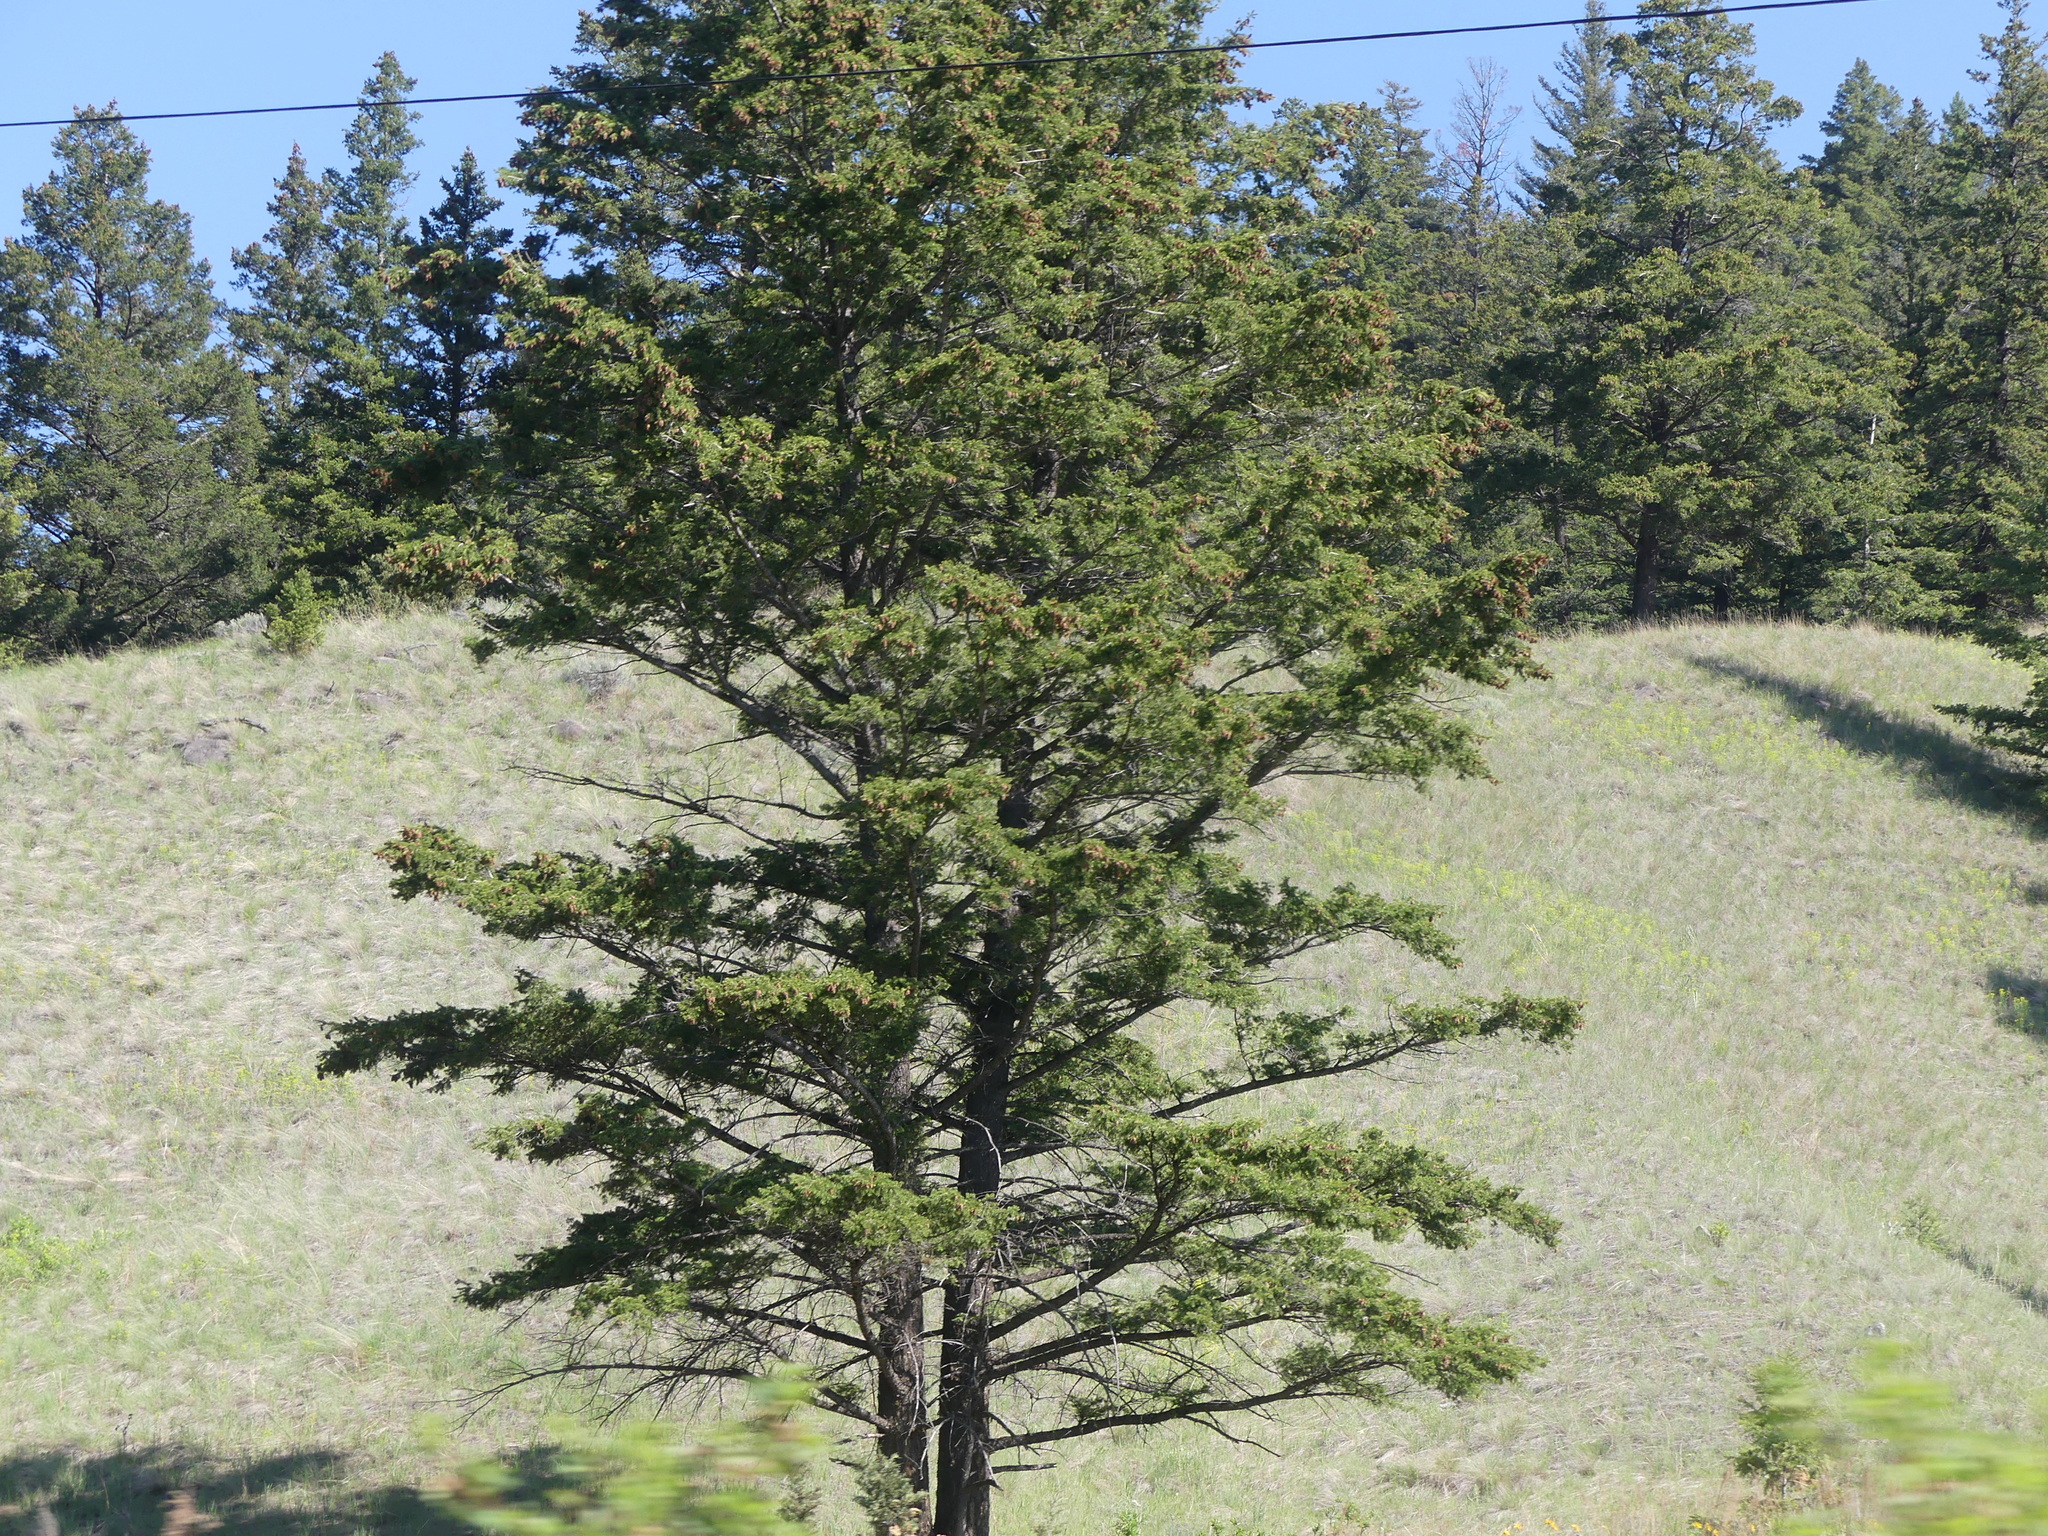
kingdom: Plantae
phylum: Tracheophyta
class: Pinopsida
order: Pinales
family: Pinaceae
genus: Pseudotsuga
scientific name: Pseudotsuga menziesii
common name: Douglas fir
